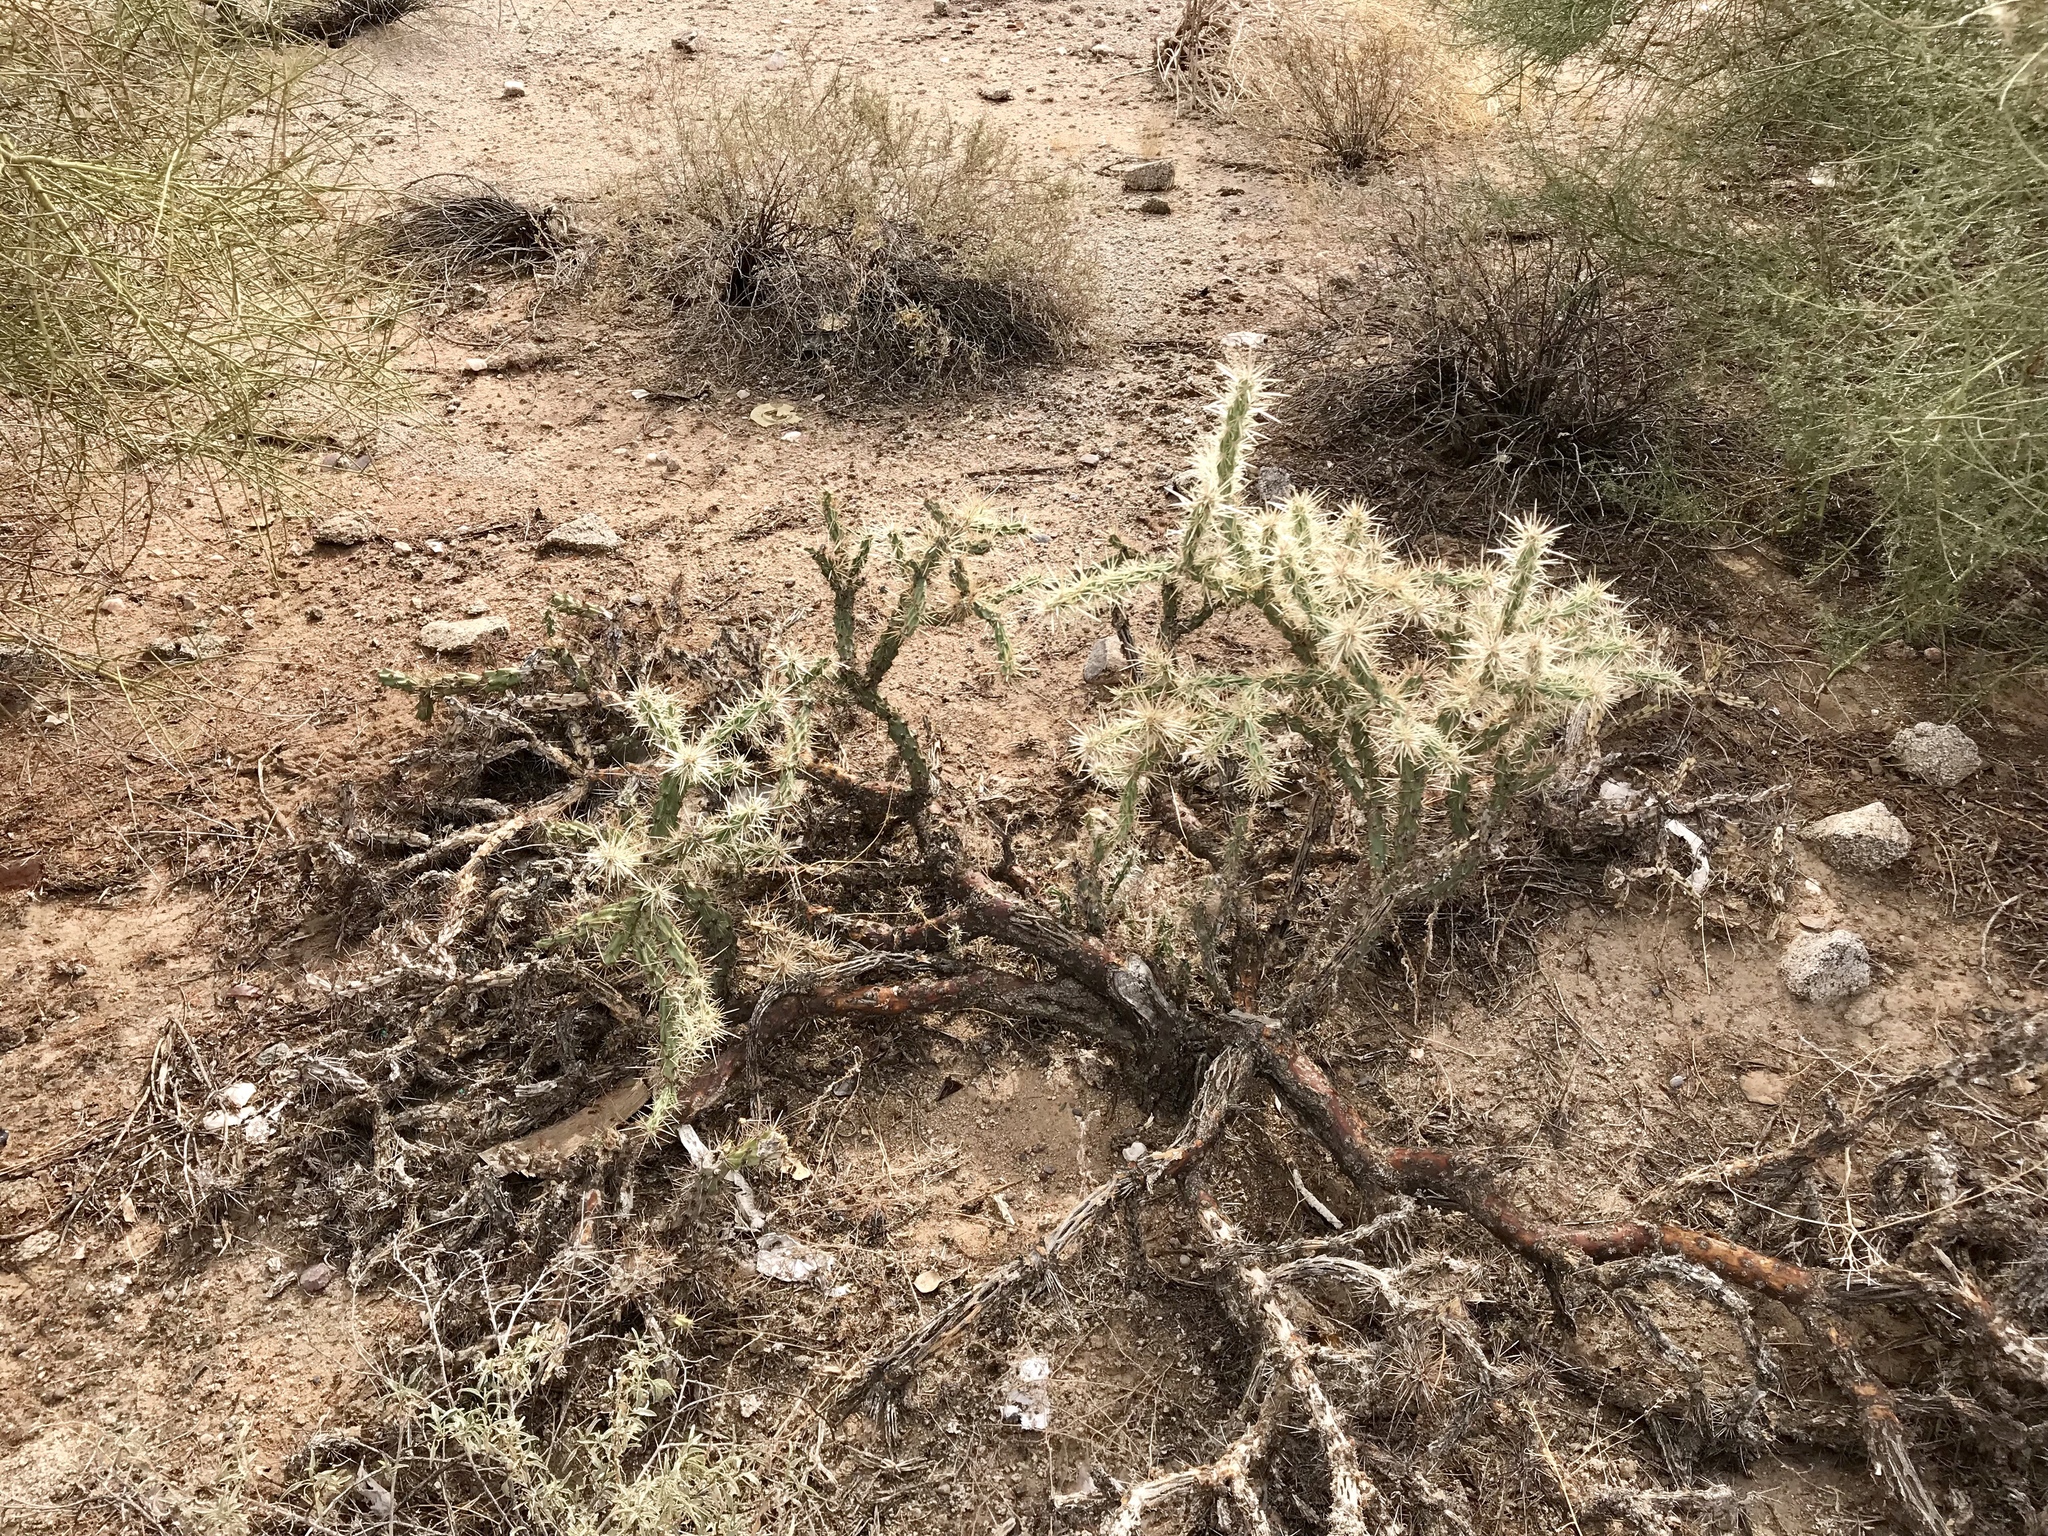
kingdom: Plantae
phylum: Tracheophyta
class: Magnoliopsida
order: Caryophyllales
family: Cactaceae
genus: Cylindropuntia
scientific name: Cylindropuntia acanthocarpa
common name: Buckhorn cholla
